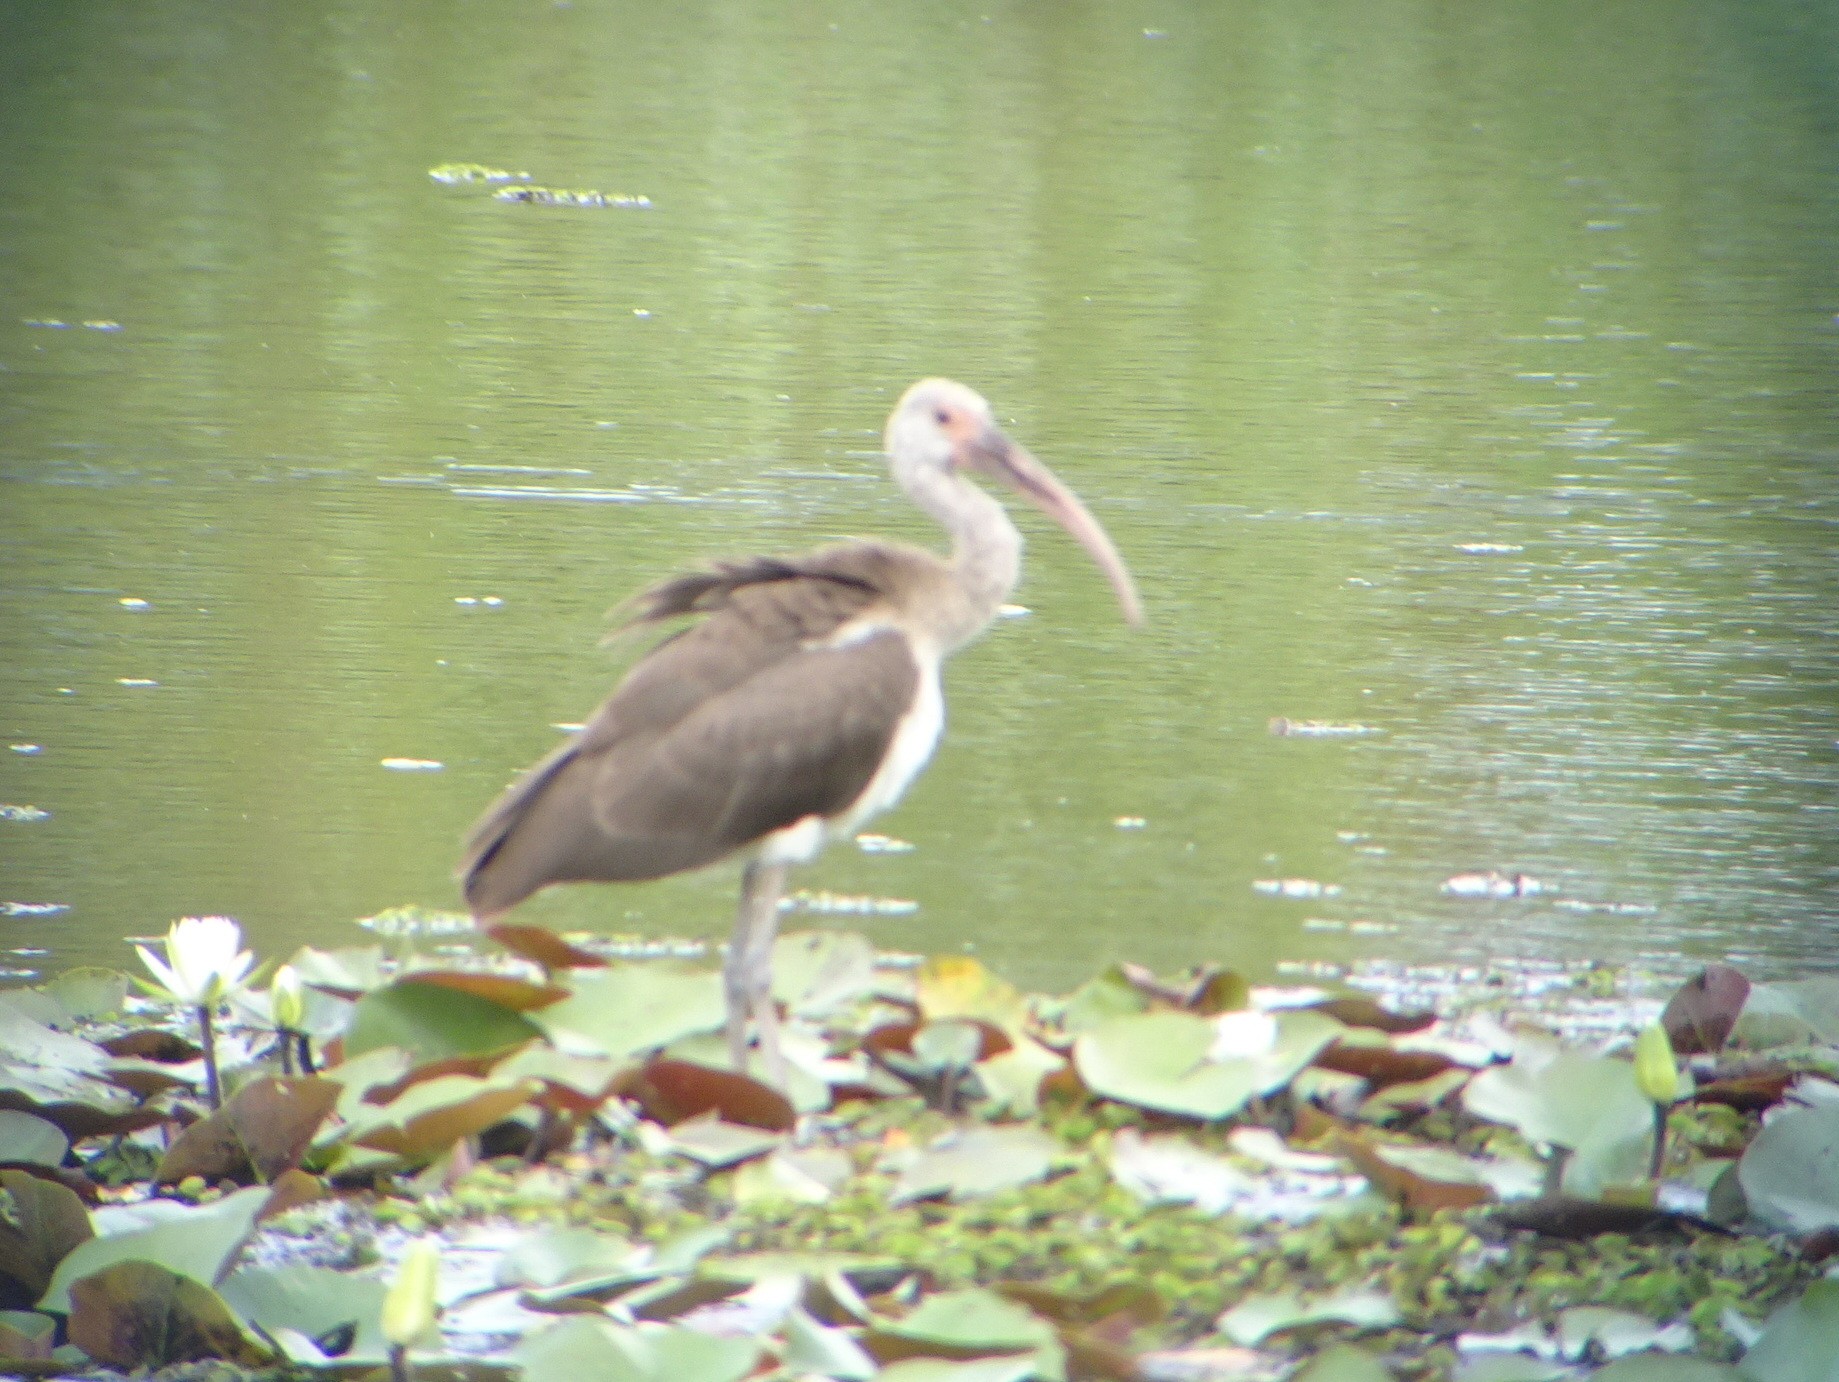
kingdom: Animalia
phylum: Chordata
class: Aves
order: Pelecaniformes
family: Threskiornithidae
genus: Eudocimus
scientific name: Eudocimus albus
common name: White ibis
